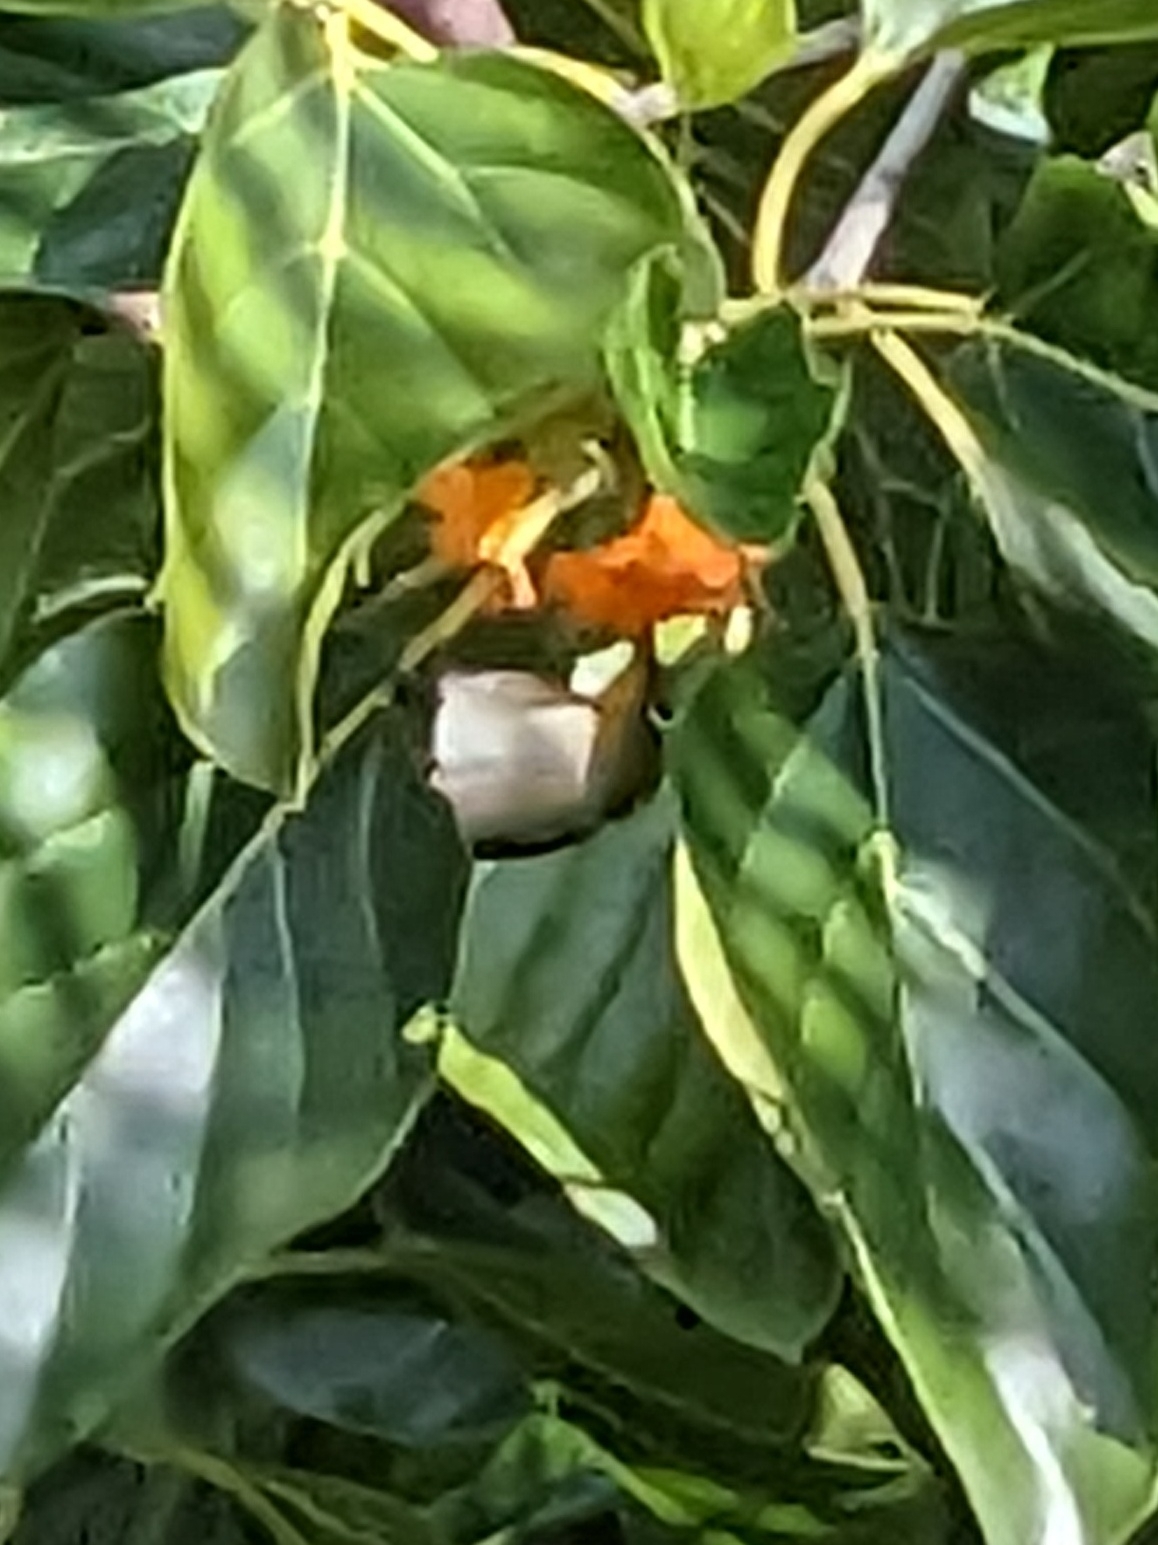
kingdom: Plantae
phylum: Tracheophyta
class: Magnoliopsida
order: Boraginales
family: Cordiaceae
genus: Cordia
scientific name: Cordia subcordata
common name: Mareer
